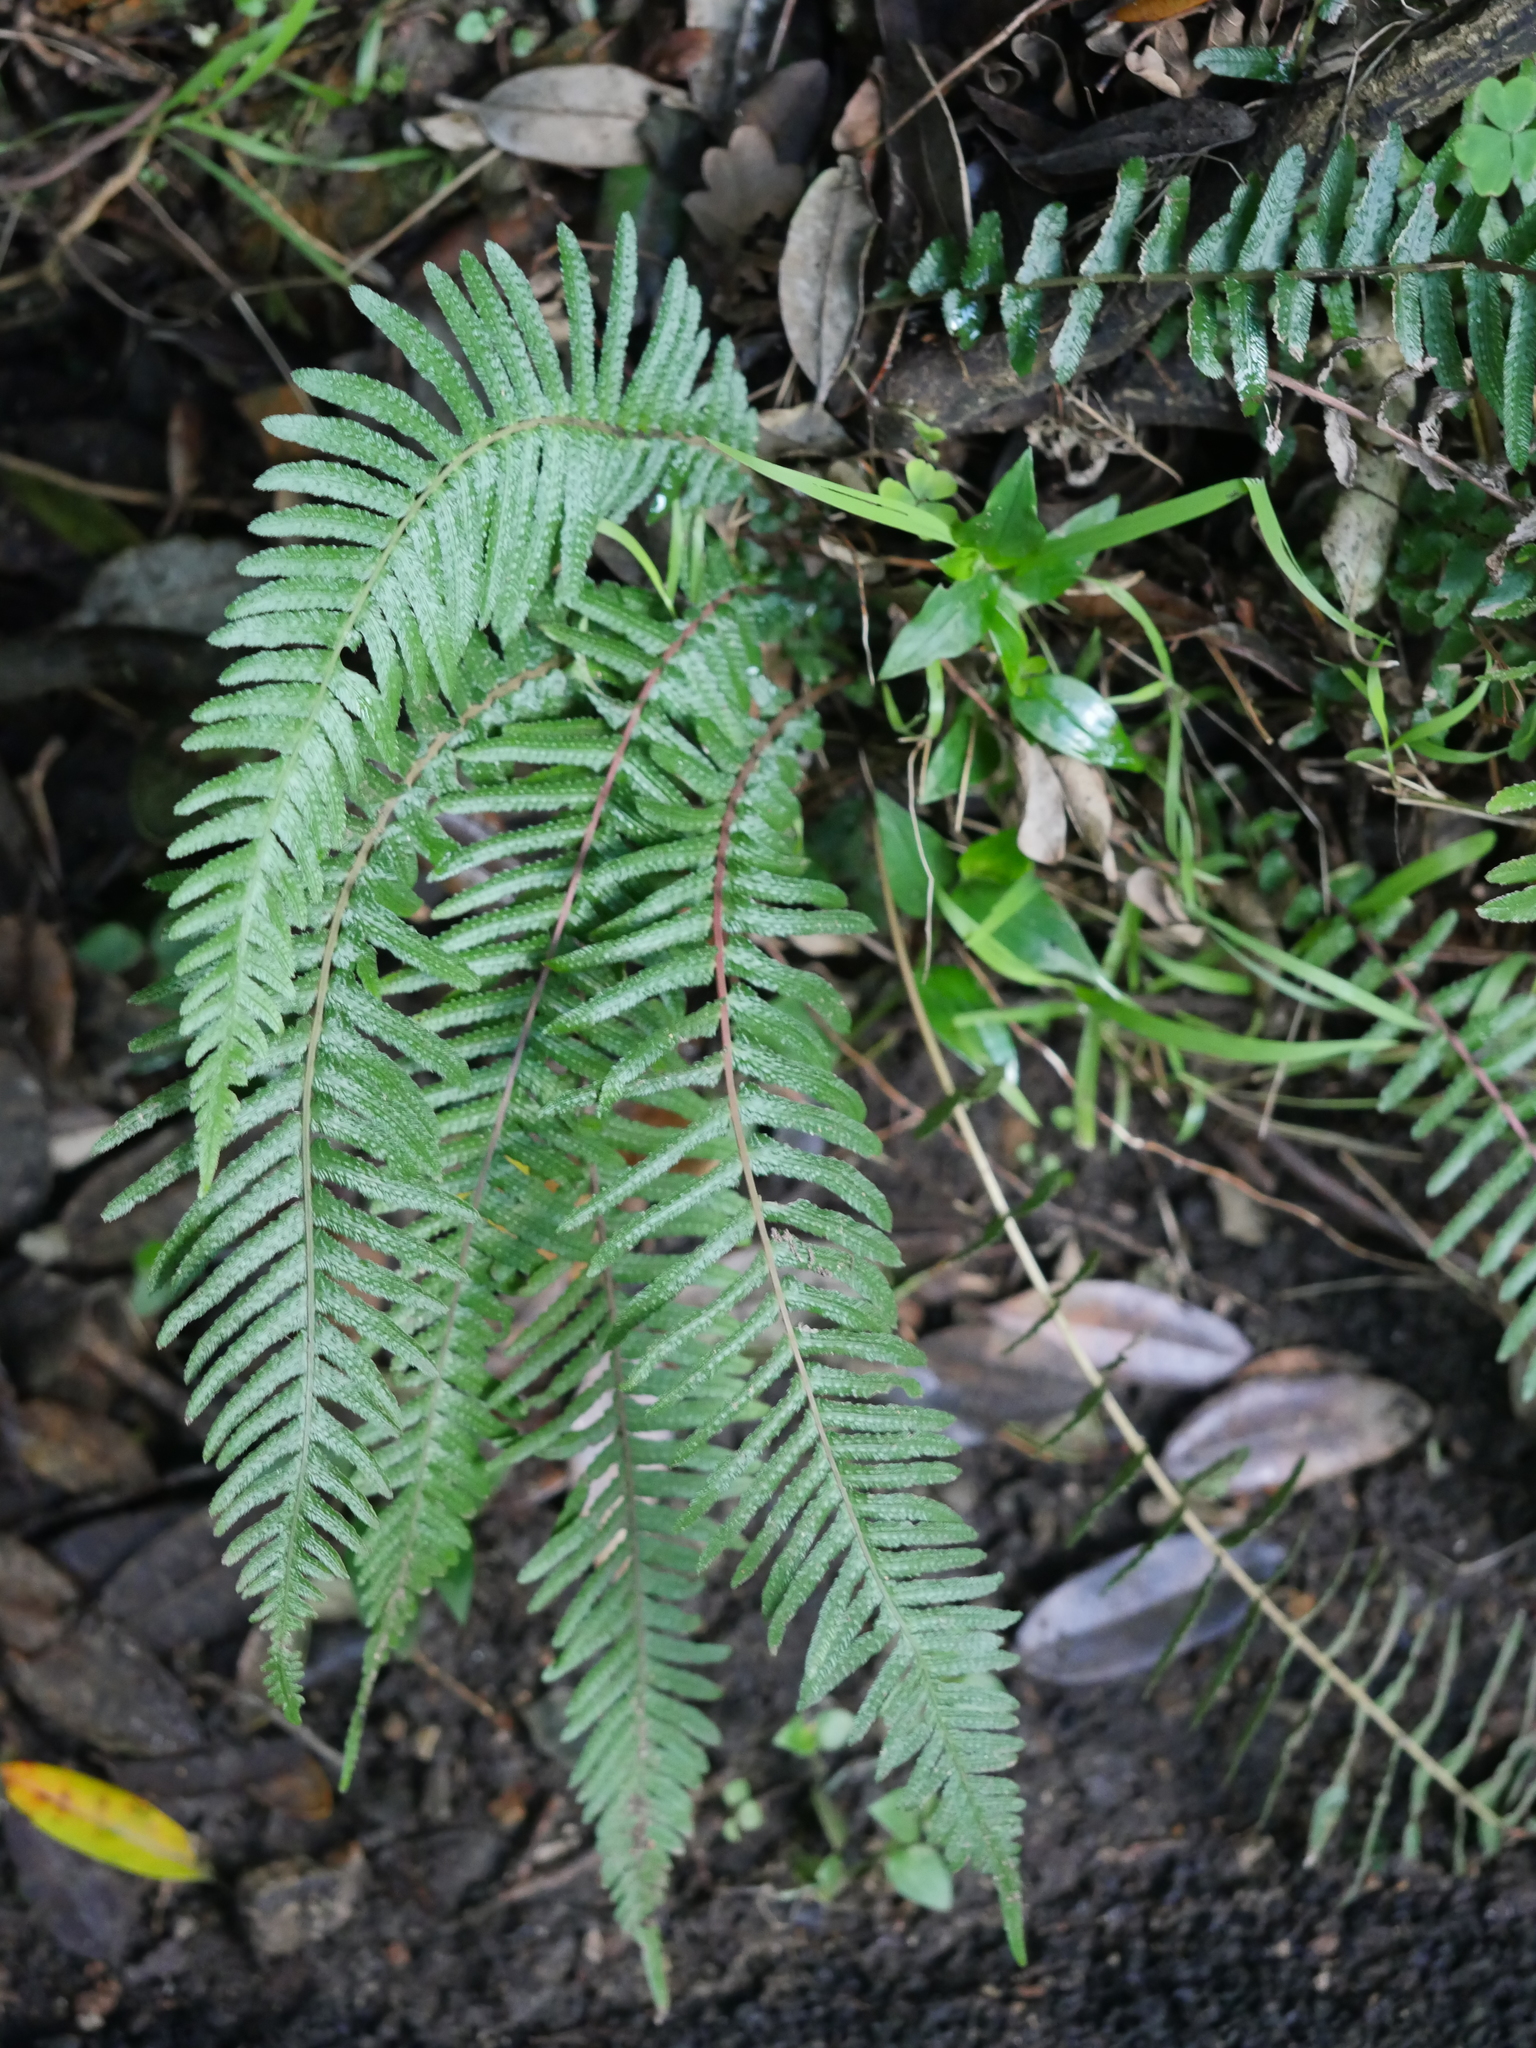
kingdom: Plantae
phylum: Tracheophyta
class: Polypodiopsida
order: Polypodiales
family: Blechnaceae
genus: Doodia
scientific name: Doodia australis
